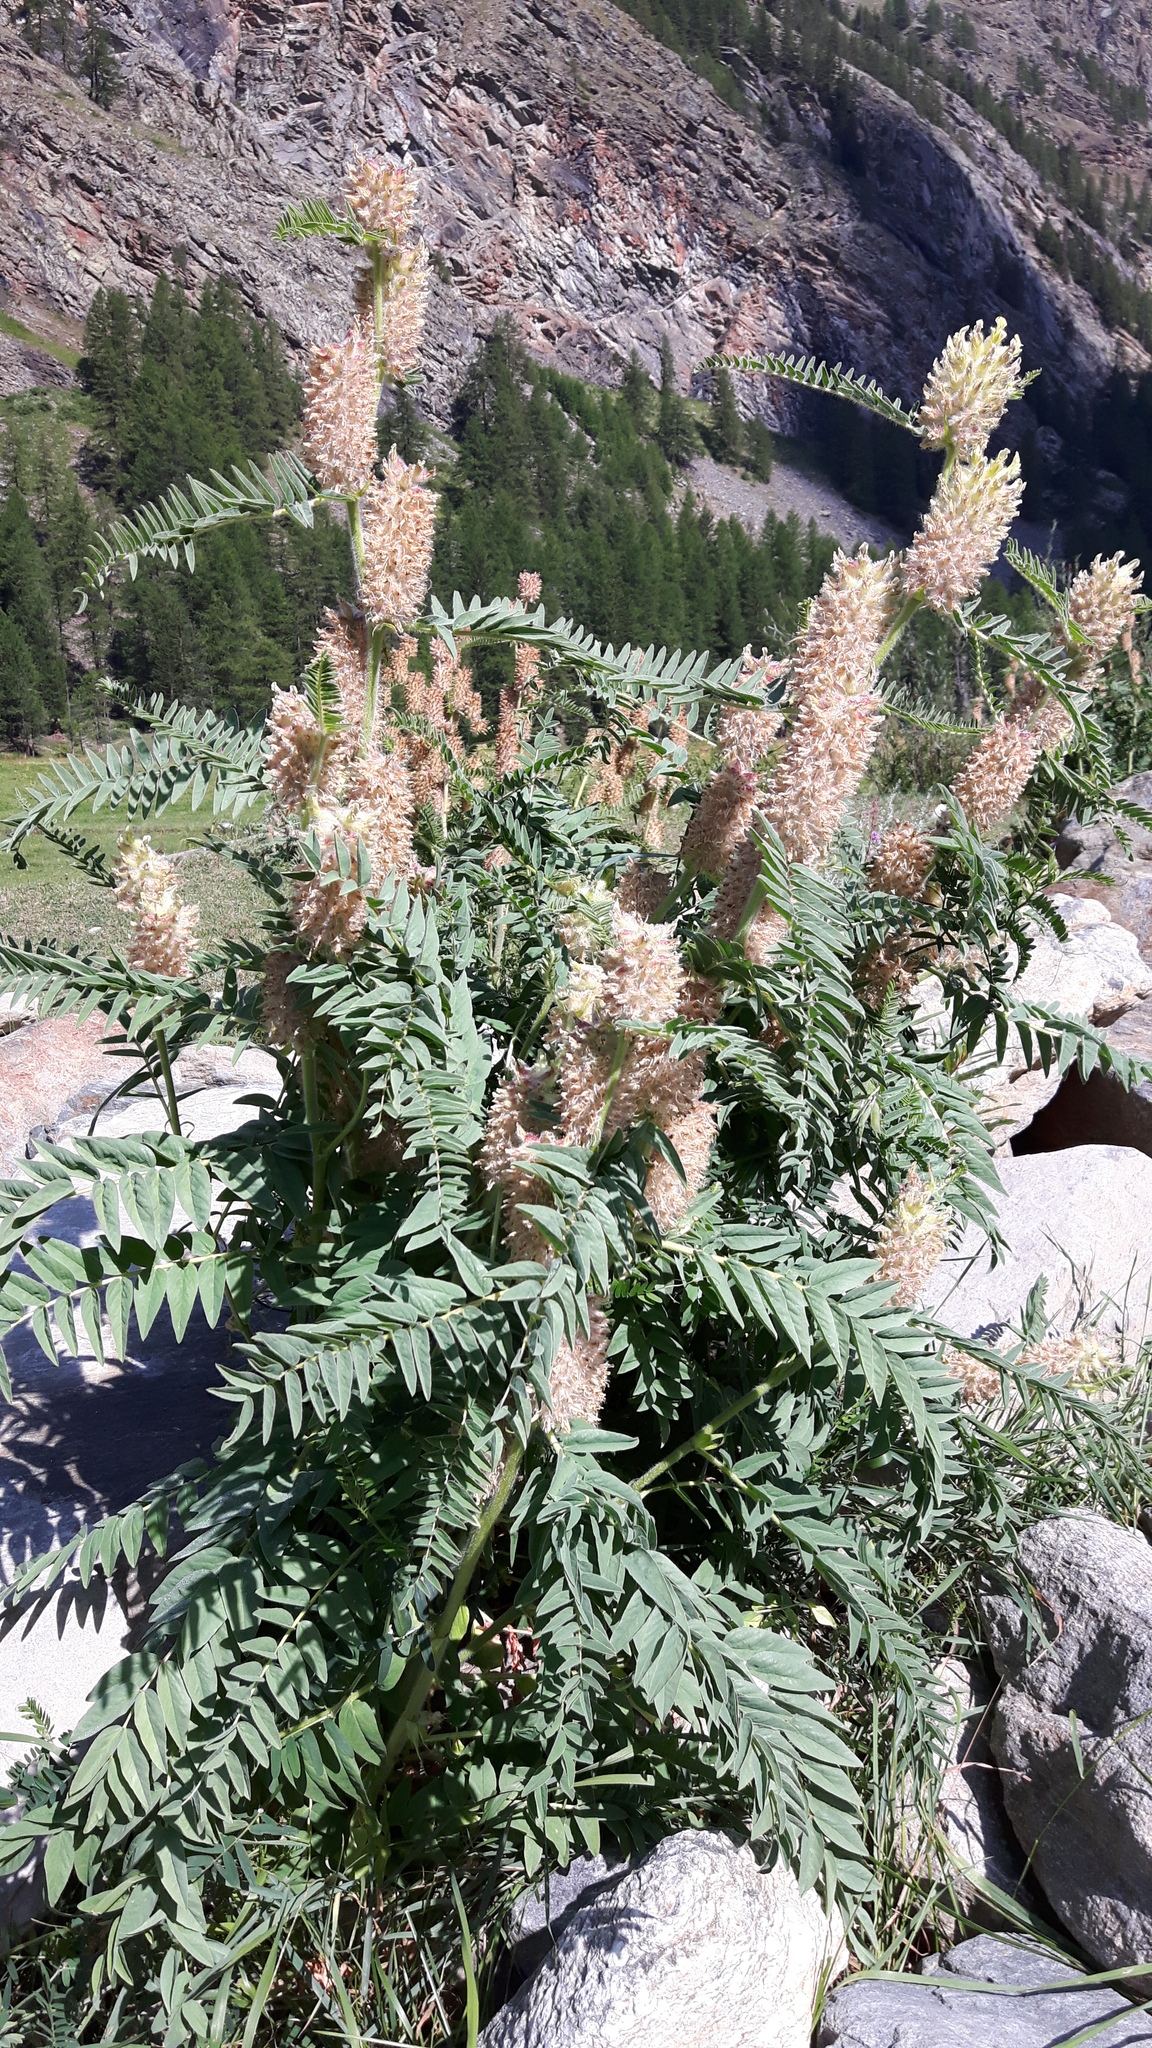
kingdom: Plantae
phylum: Tracheophyta
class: Magnoliopsida
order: Fabales
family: Fabaceae
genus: Astragalus
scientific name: Astragalus alopecurus
